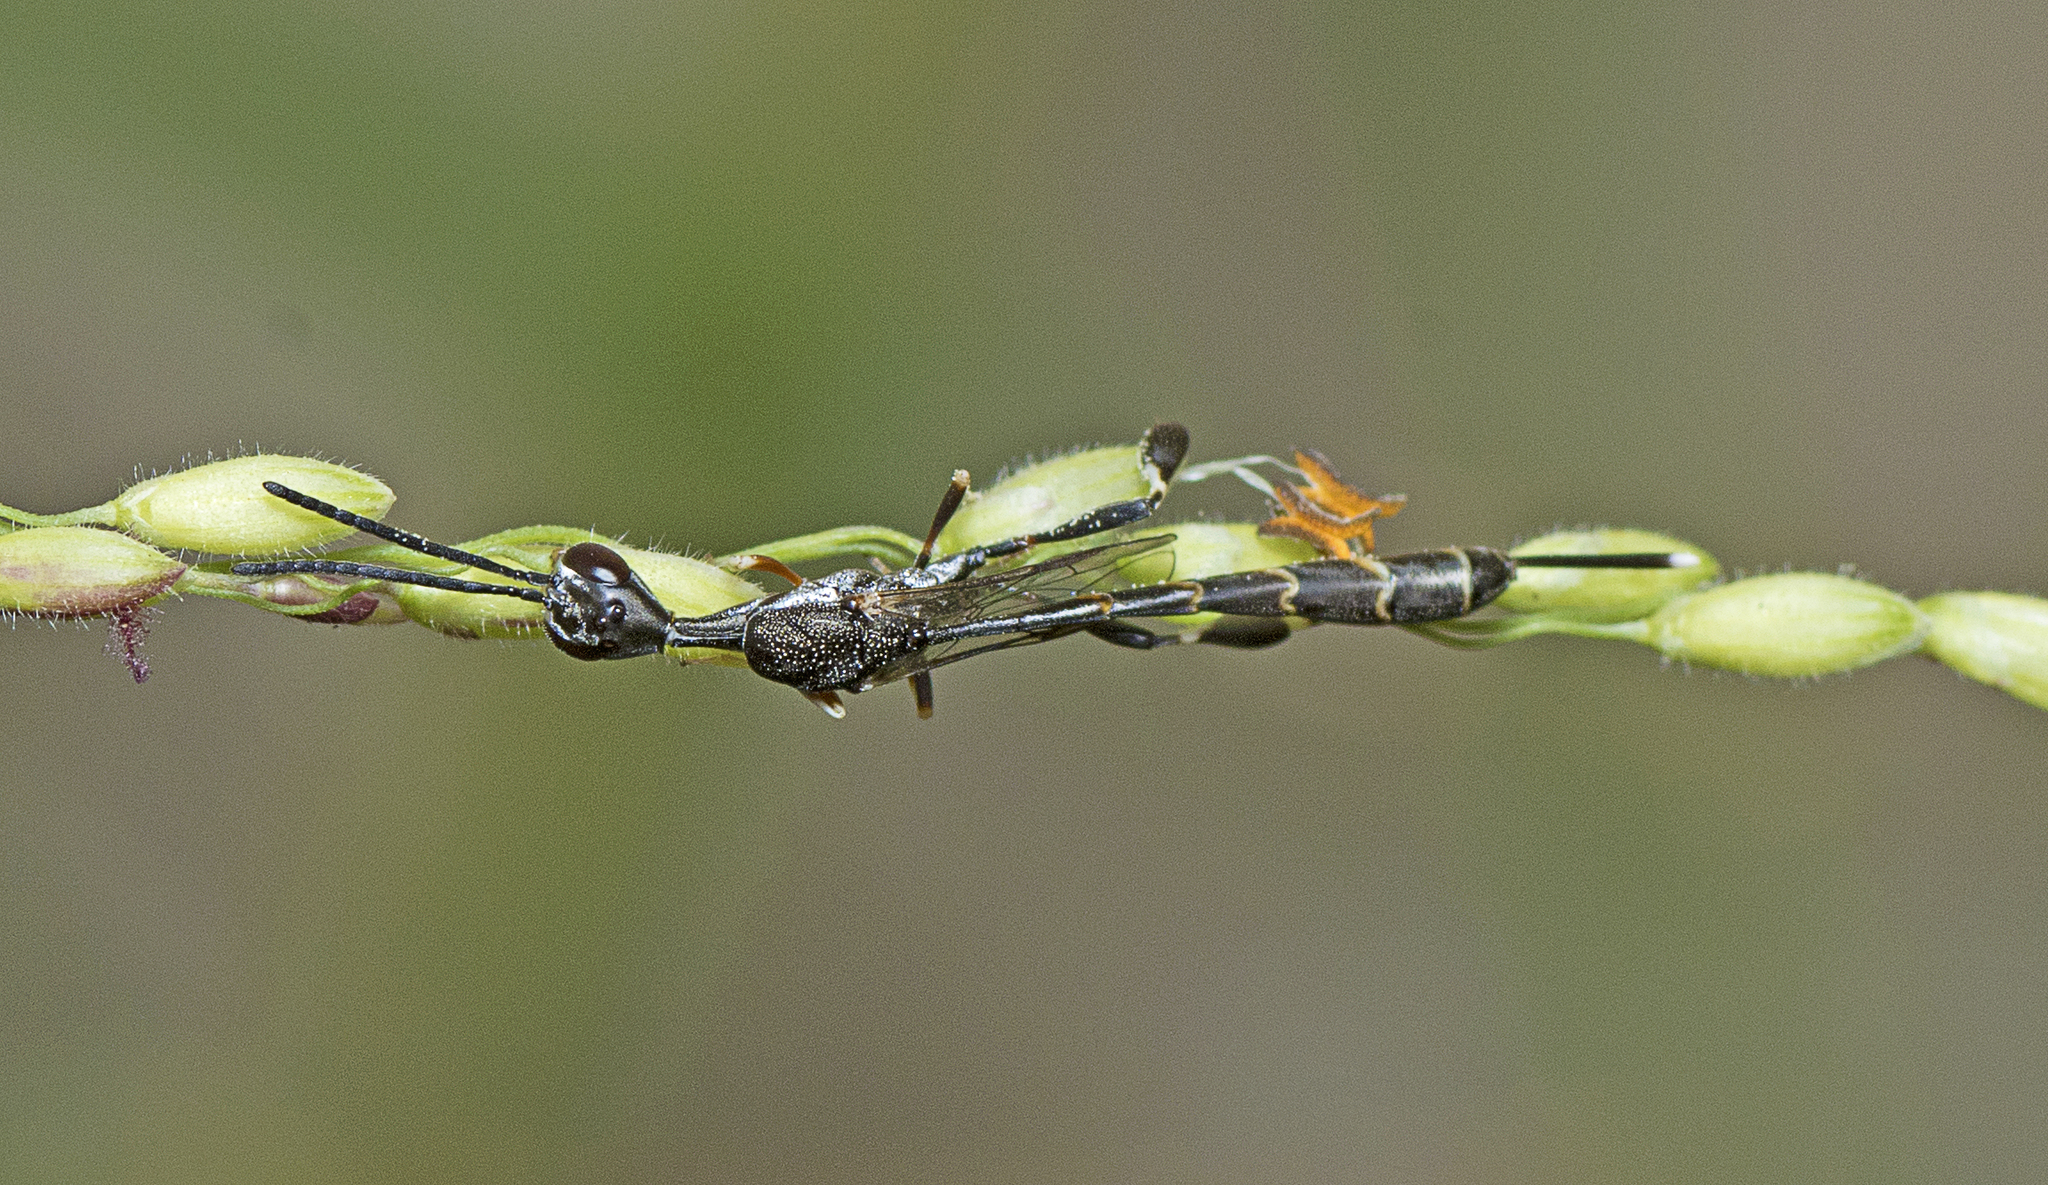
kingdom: Animalia
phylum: Arthropoda
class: Insecta
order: Hymenoptera
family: Gasteruptiidae
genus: Gasteruption
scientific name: Gasteruption
